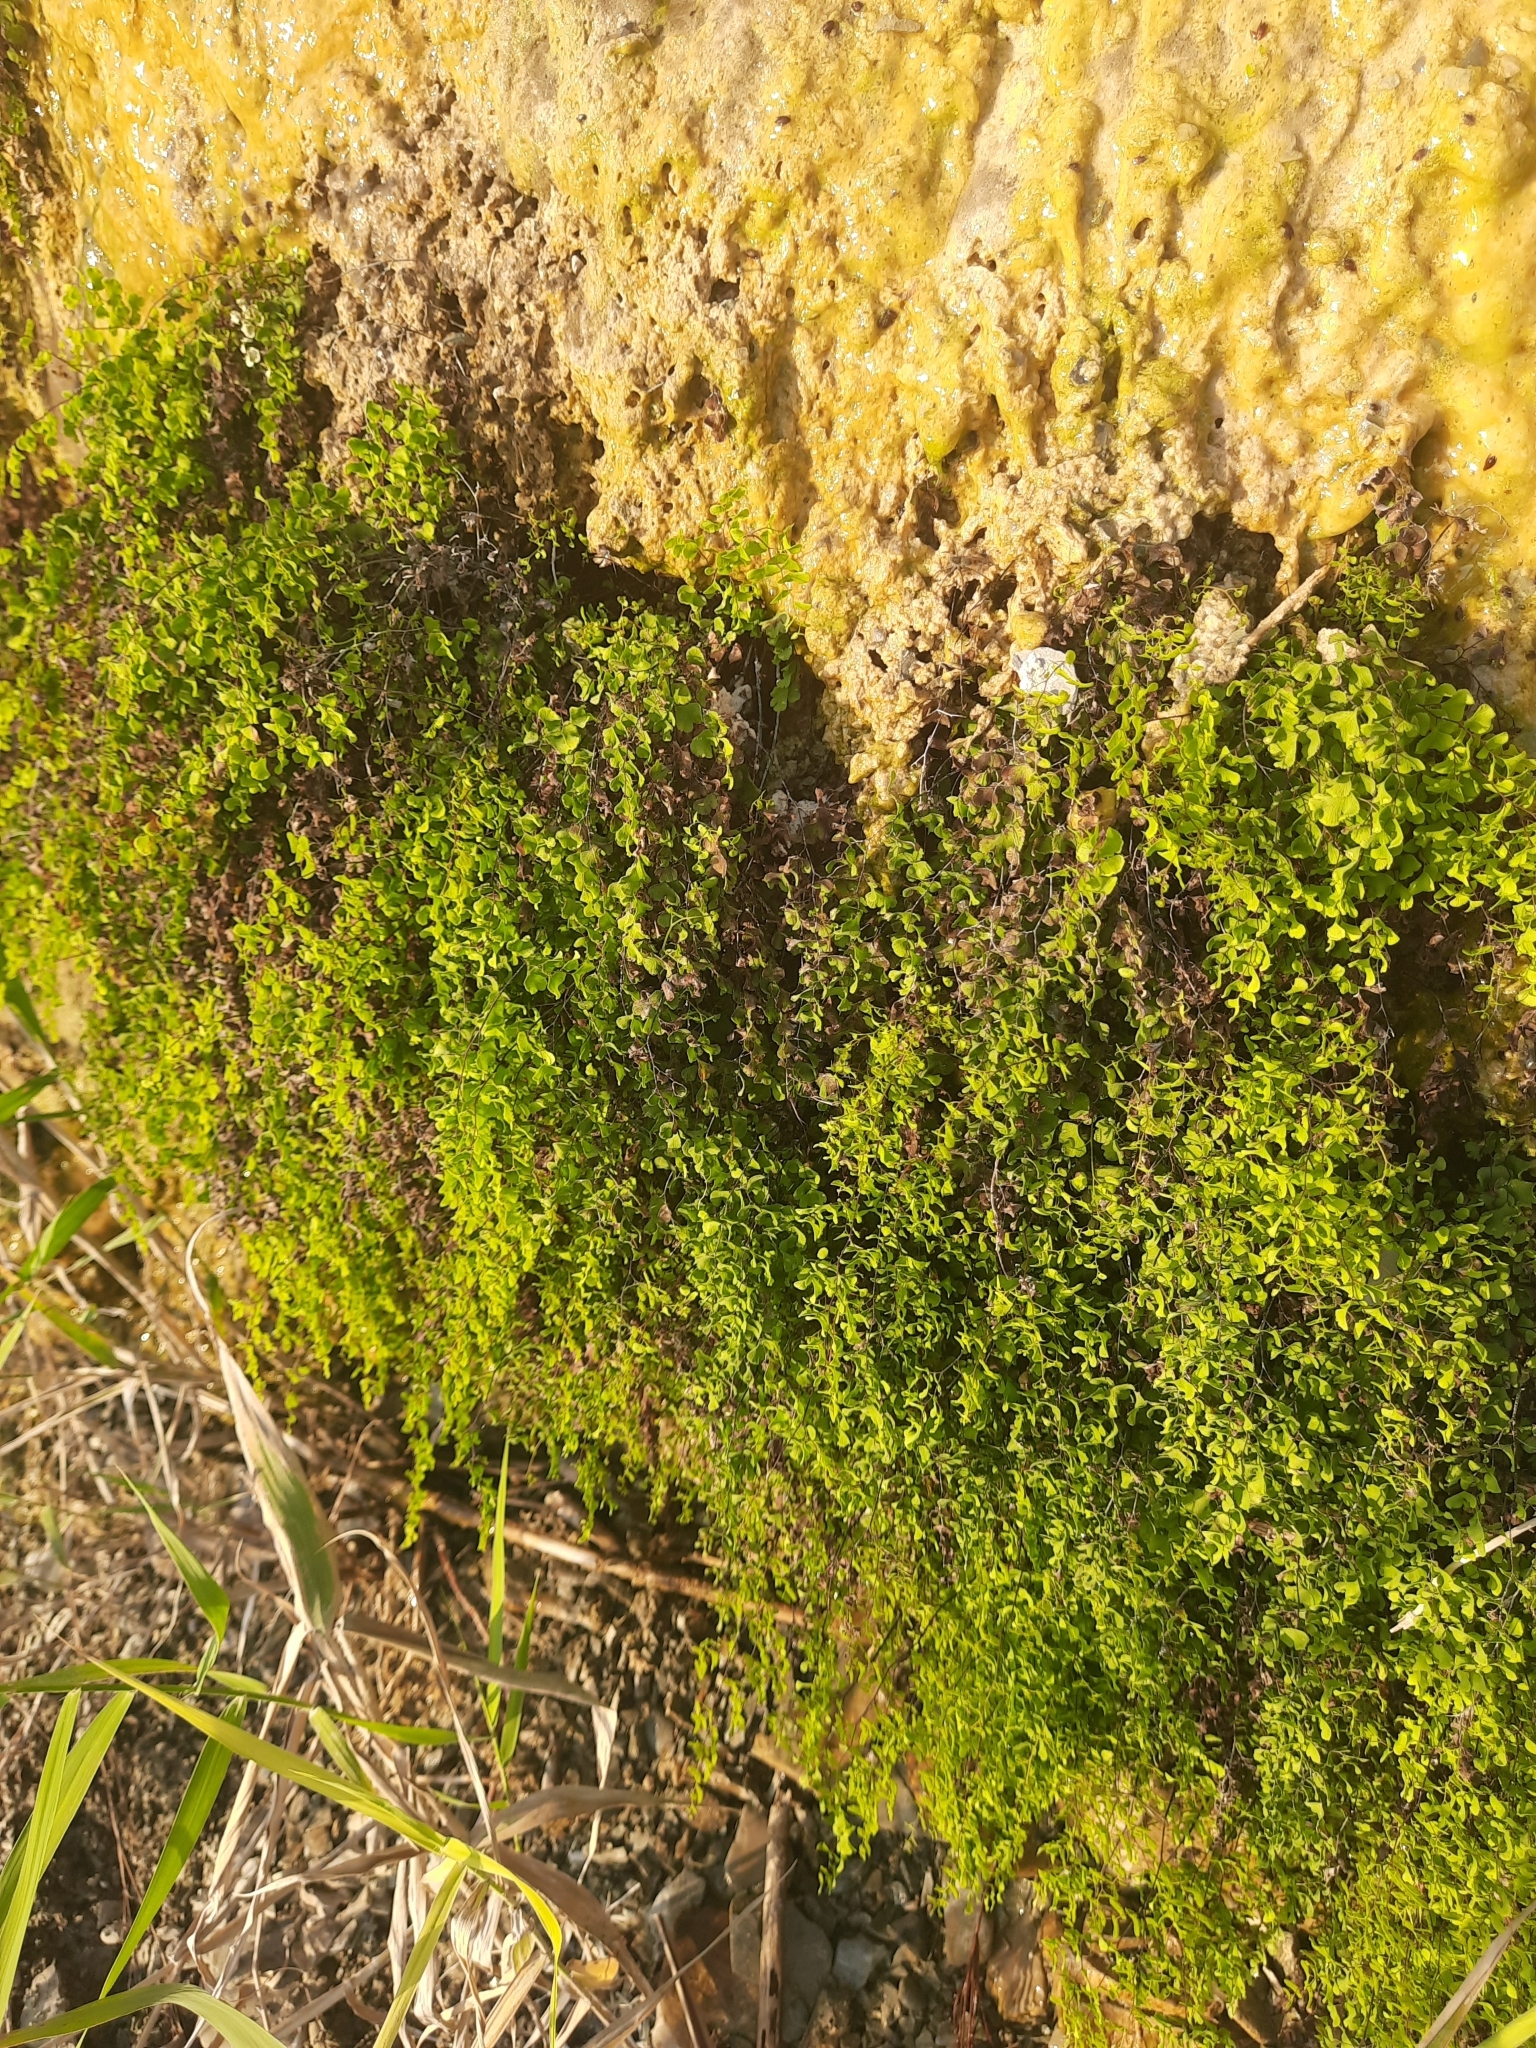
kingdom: Plantae
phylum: Tracheophyta
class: Polypodiopsida
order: Polypodiales
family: Pteridaceae
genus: Adiantum
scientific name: Adiantum capillus-veneris
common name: Maidenhair fern
